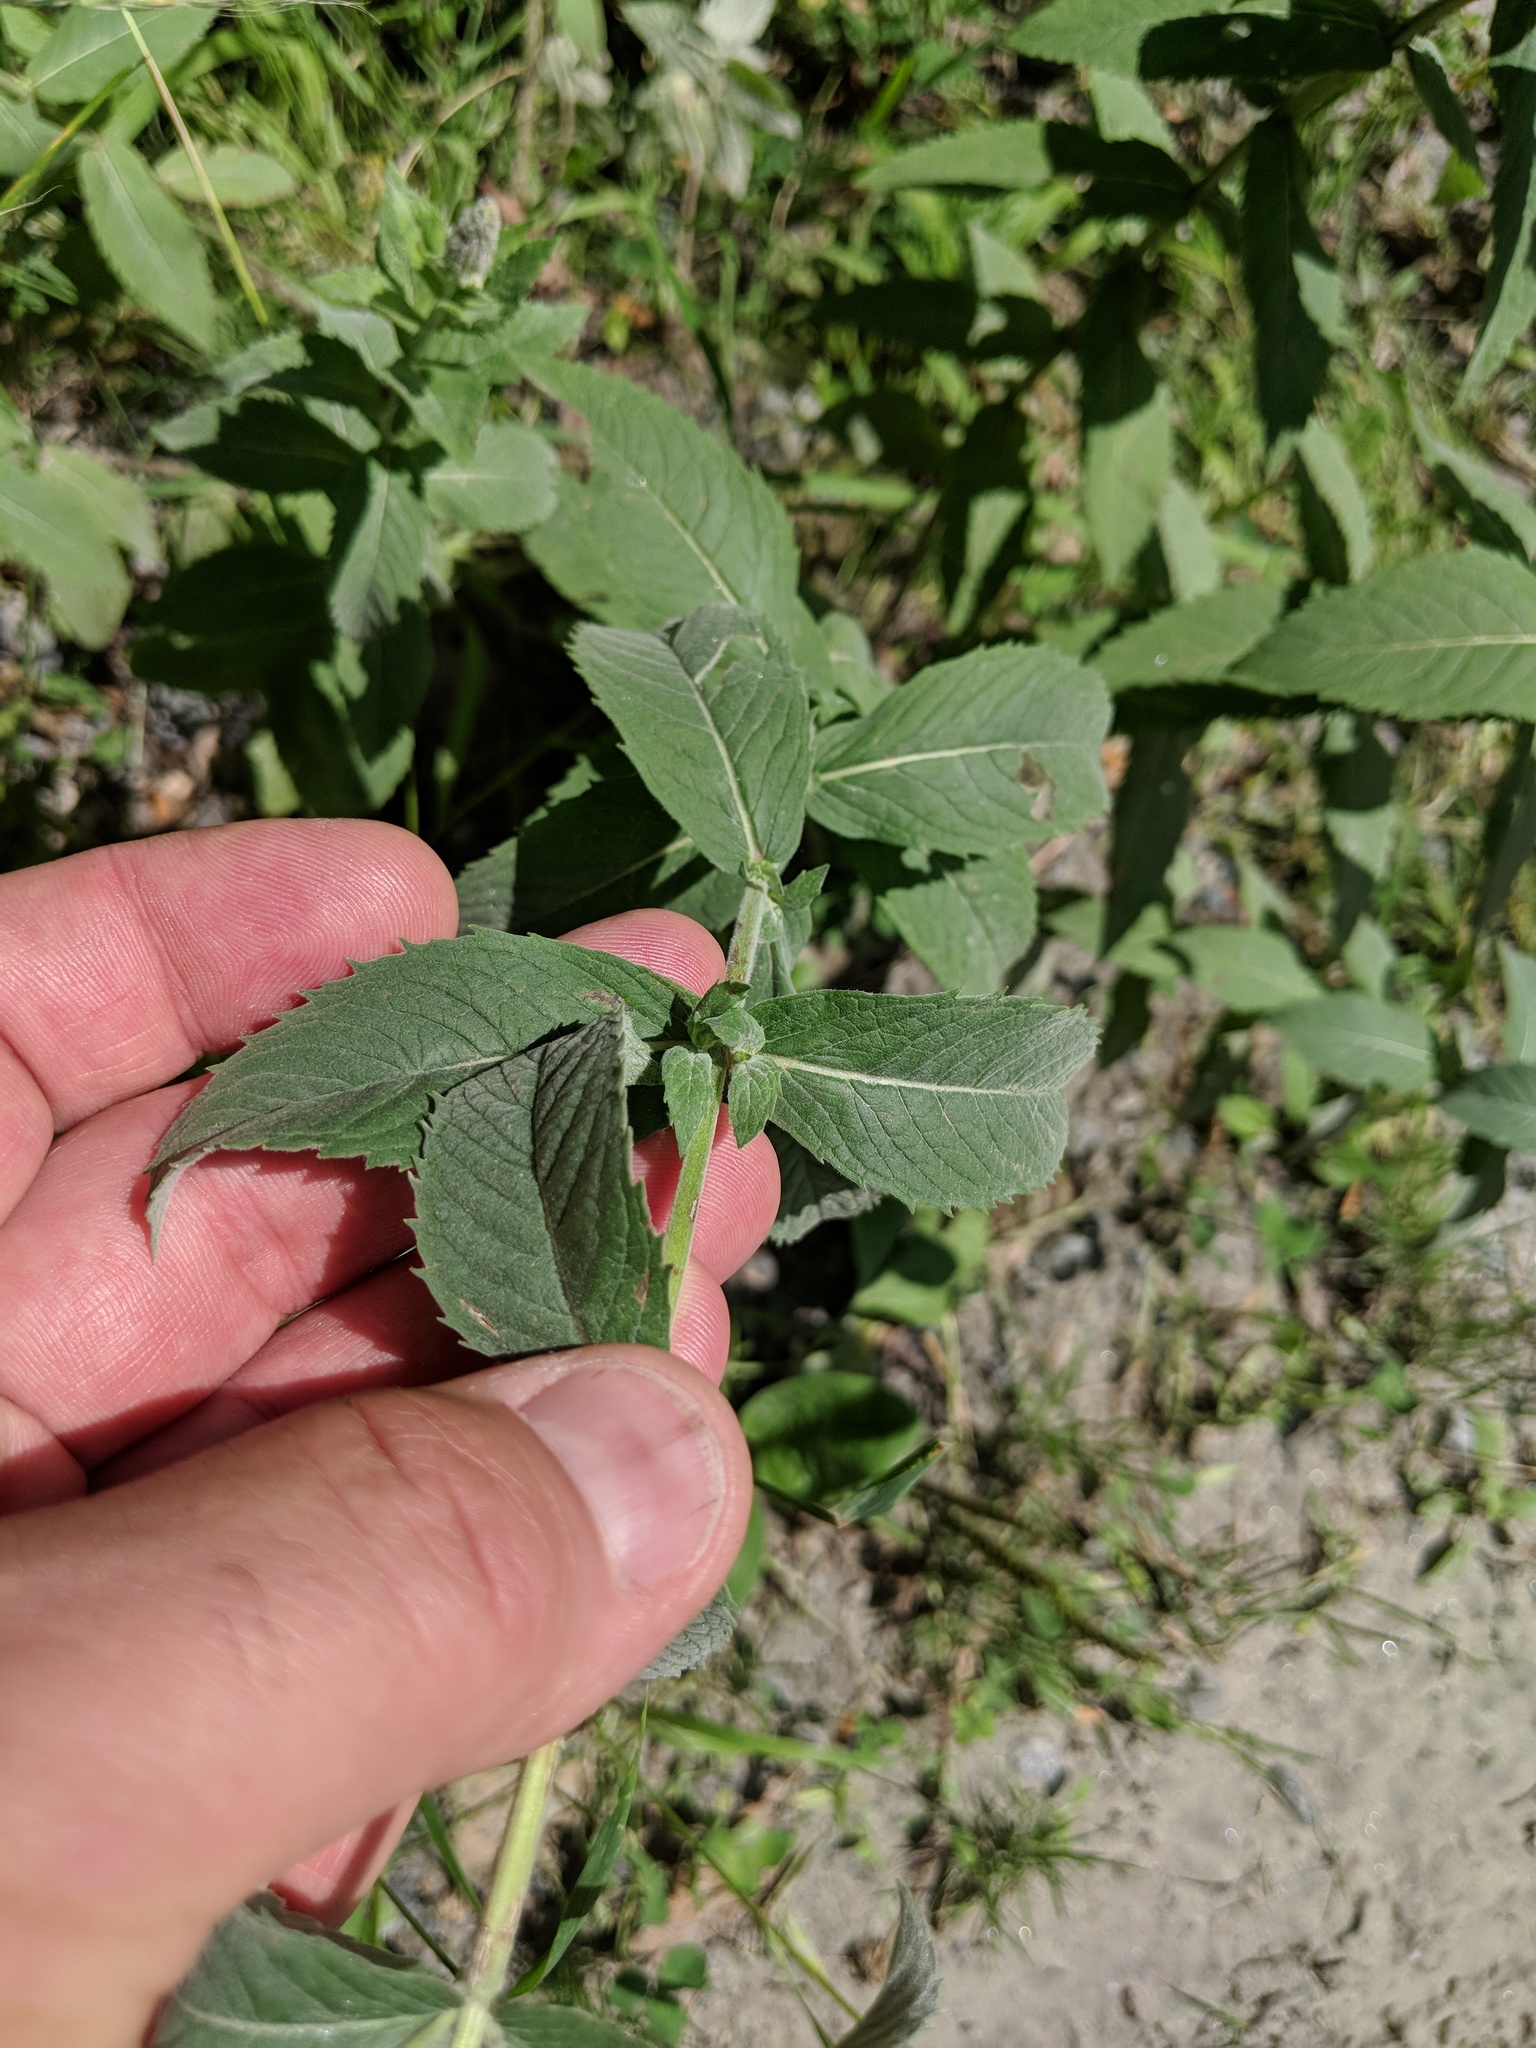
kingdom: Plantae
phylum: Tracheophyta
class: Magnoliopsida
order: Lamiales
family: Lamiaceae
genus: Mentha
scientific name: Mentha longifolia
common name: Horse mint
